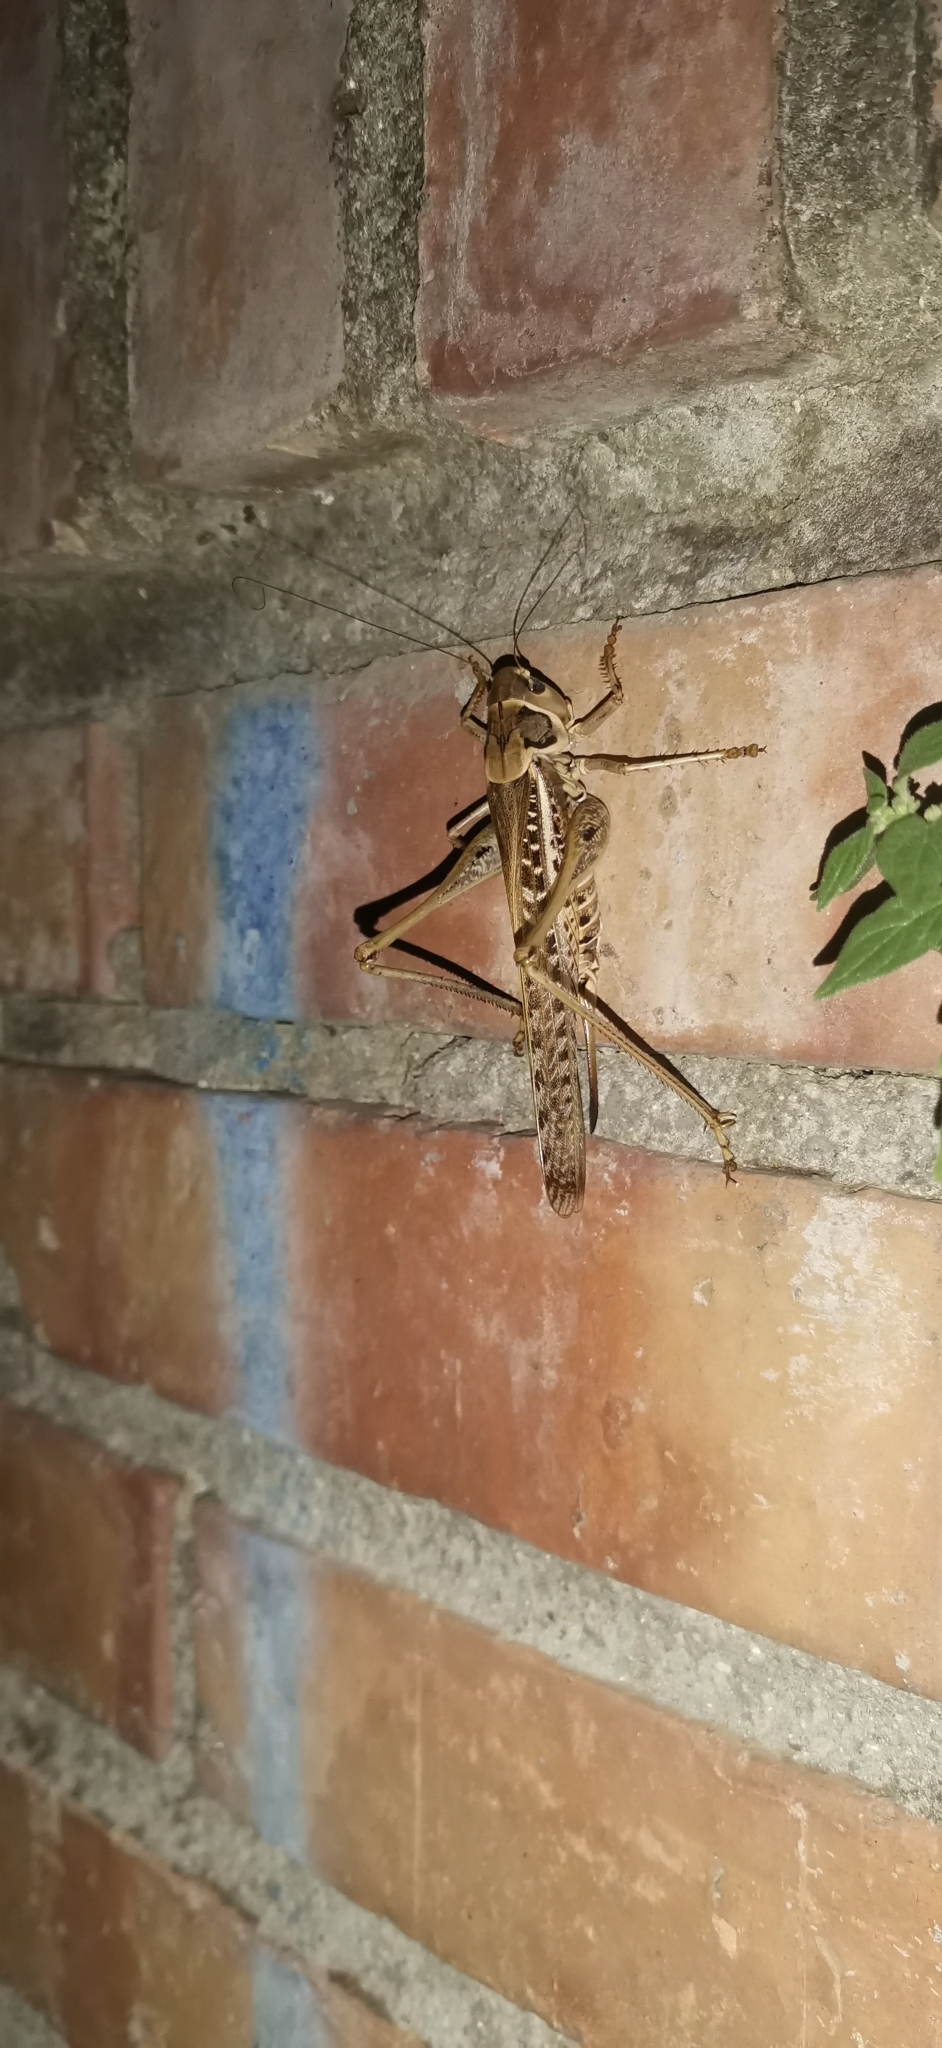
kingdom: Animalia
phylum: Arthropoda
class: Insecta
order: Orthoptera
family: Tettigoniidae
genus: Decticus
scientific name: Decticus albifrons
